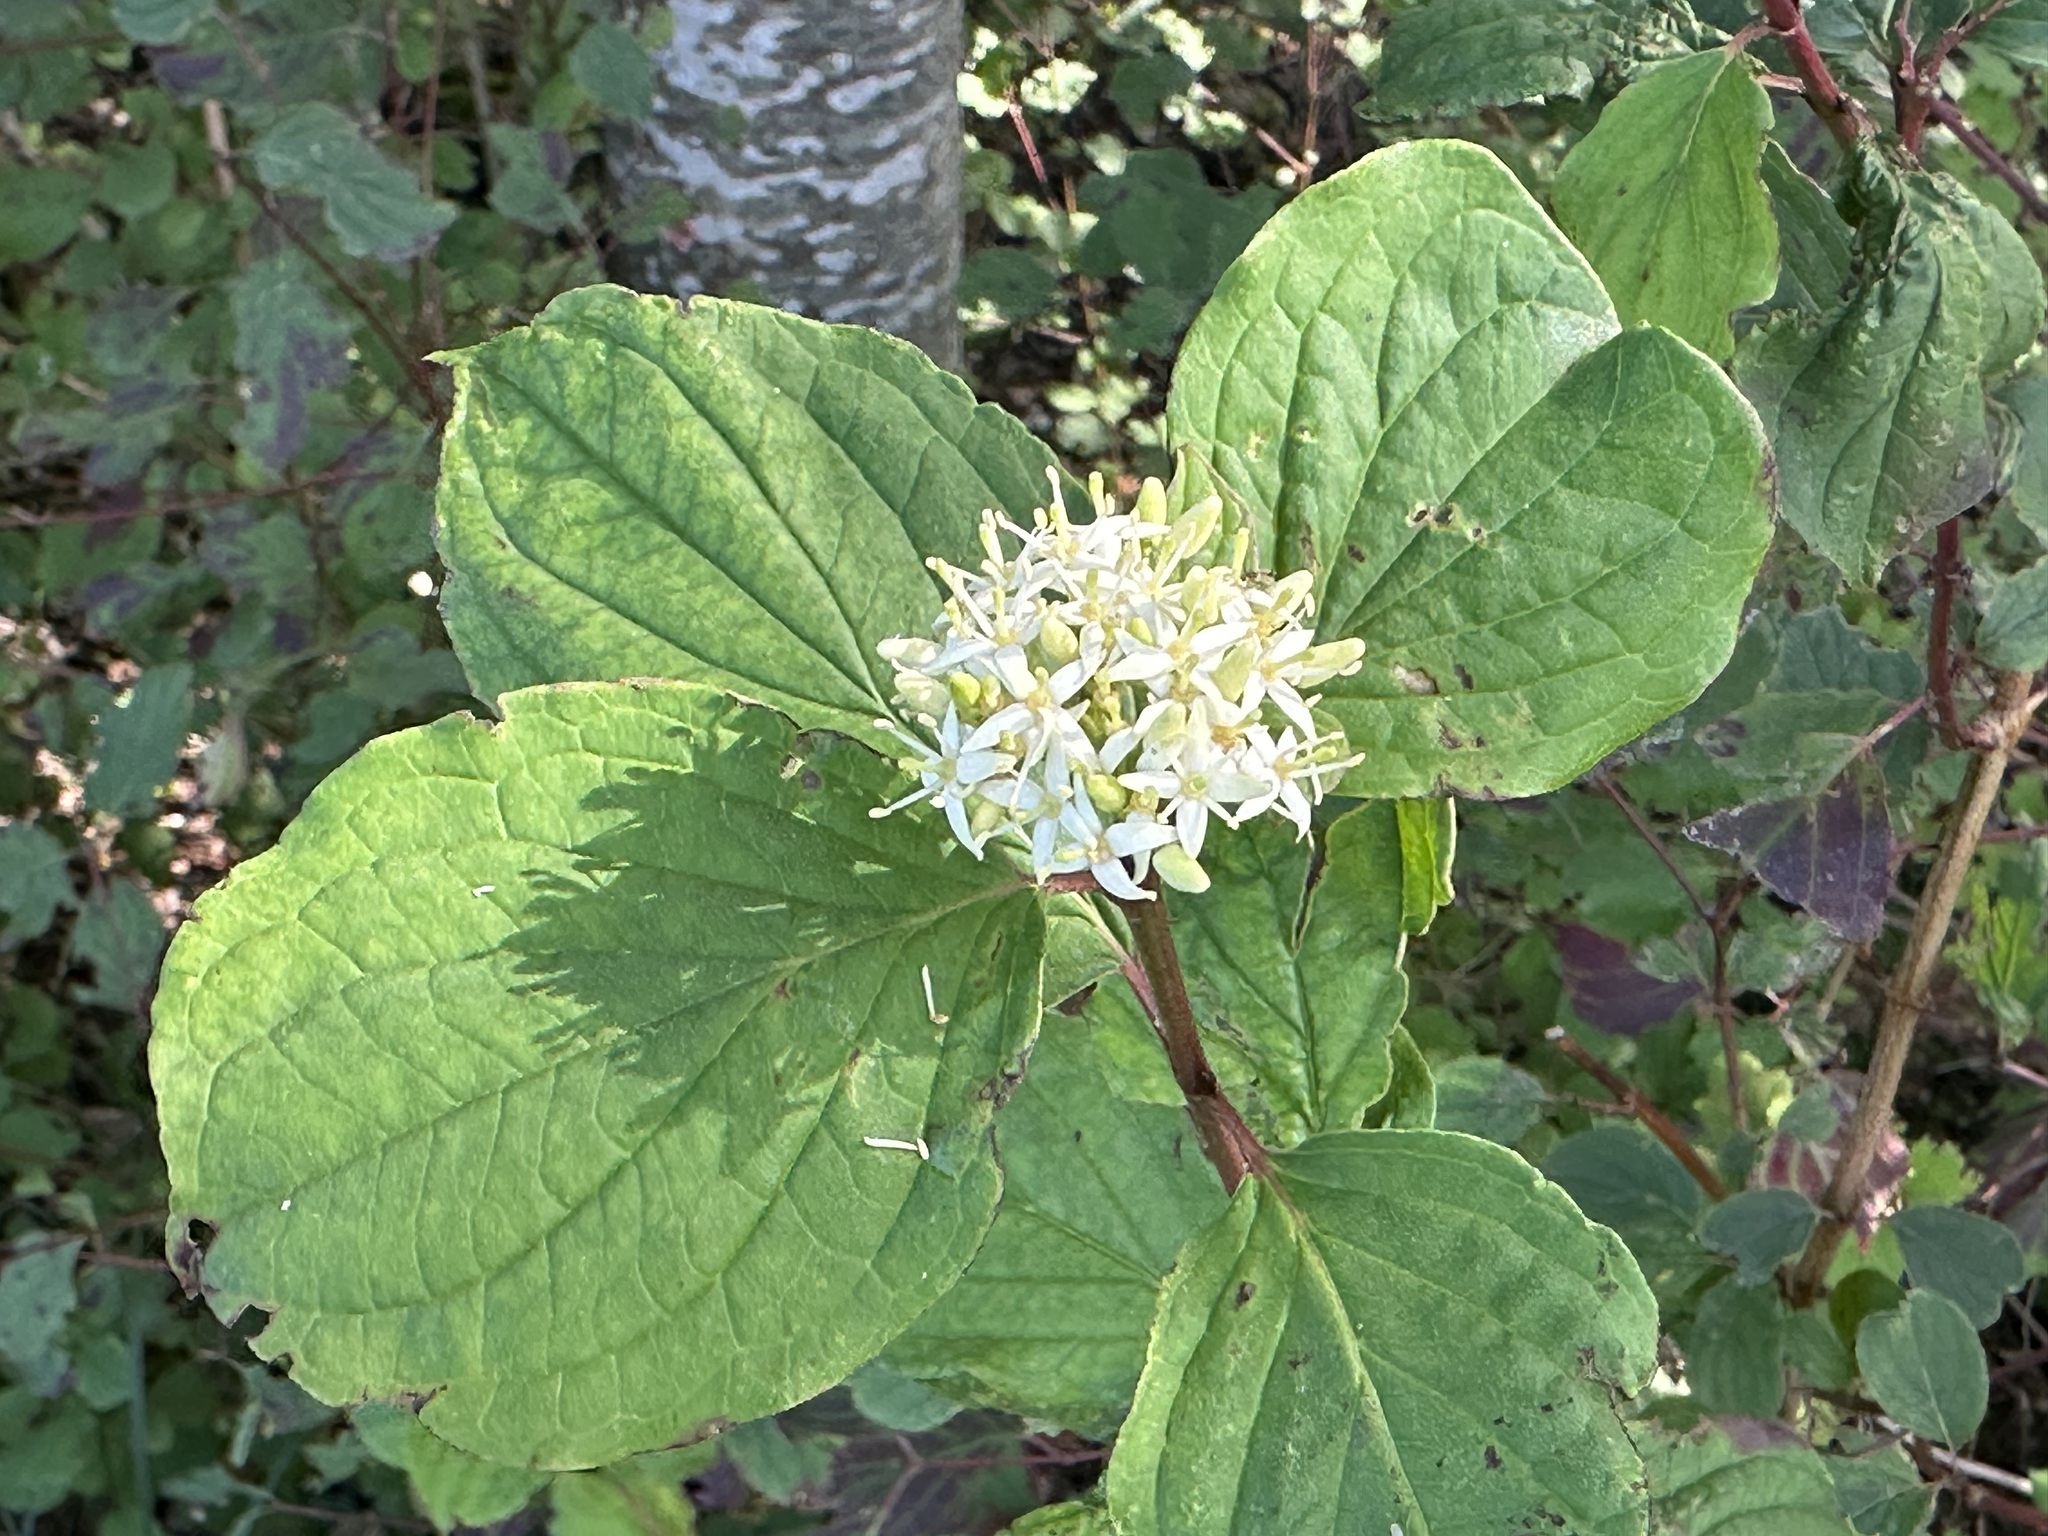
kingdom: Plantae
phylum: Tracheophyta
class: Magnoliopsida
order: Cornales
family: Cornaceae
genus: Cornus
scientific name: Cornus sanguinea
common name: Dogwood
